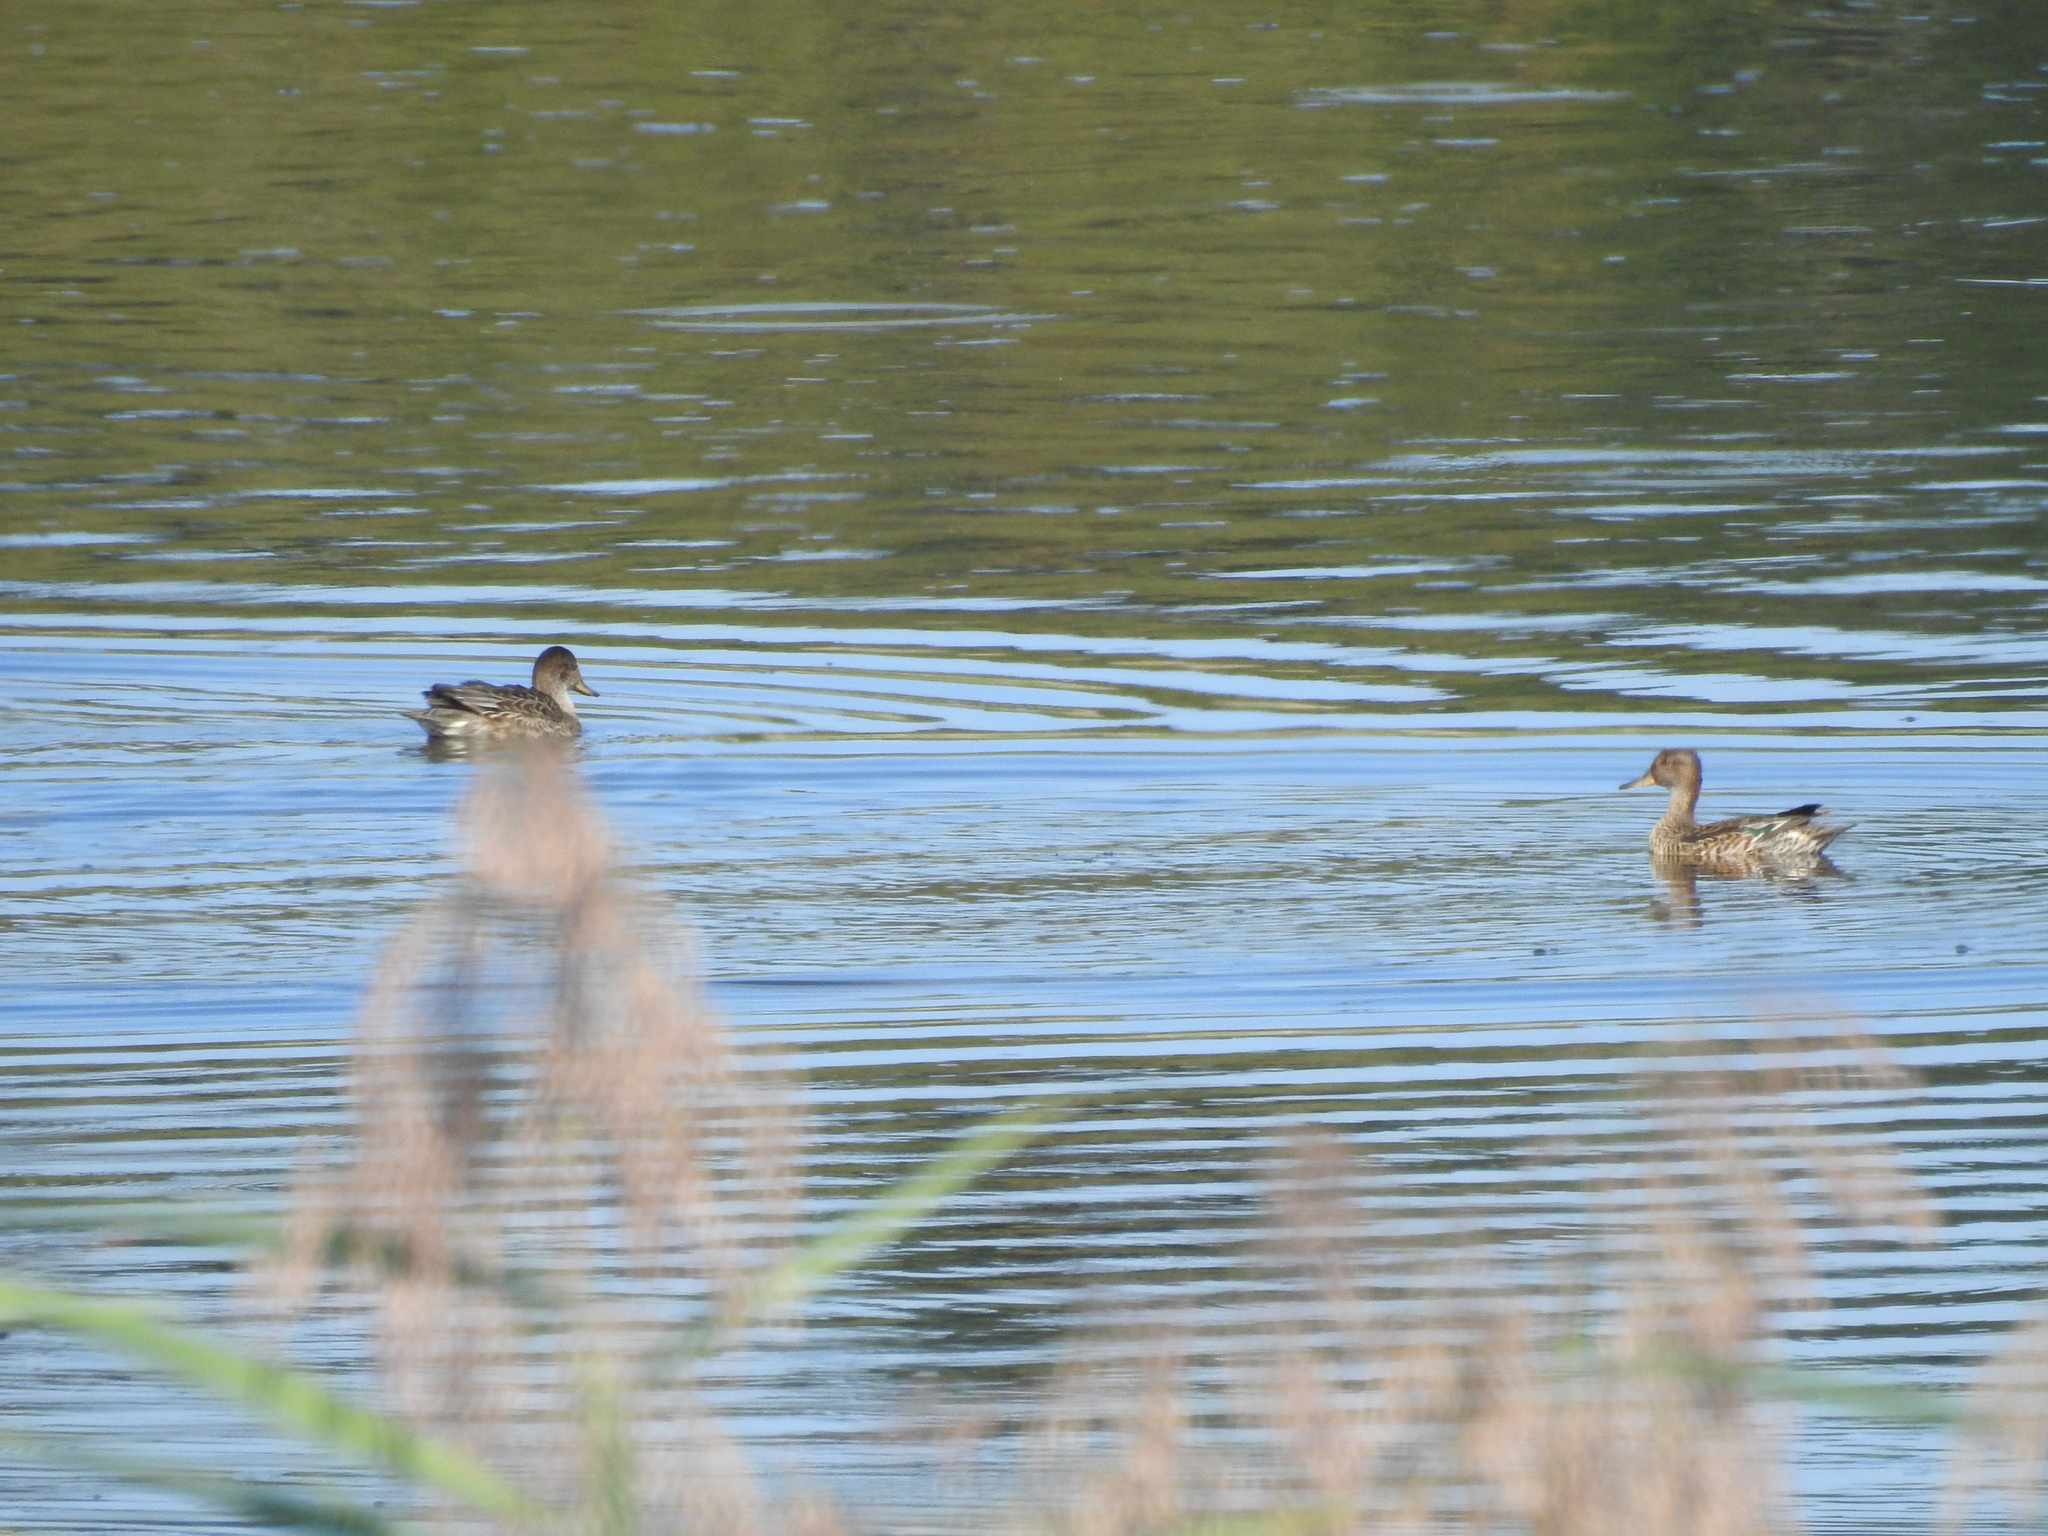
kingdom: Animalia
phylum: Chordata
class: Aves
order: Anseriformes
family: Anatidae
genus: Anas
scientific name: Anas crecca
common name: Eurasian teal
